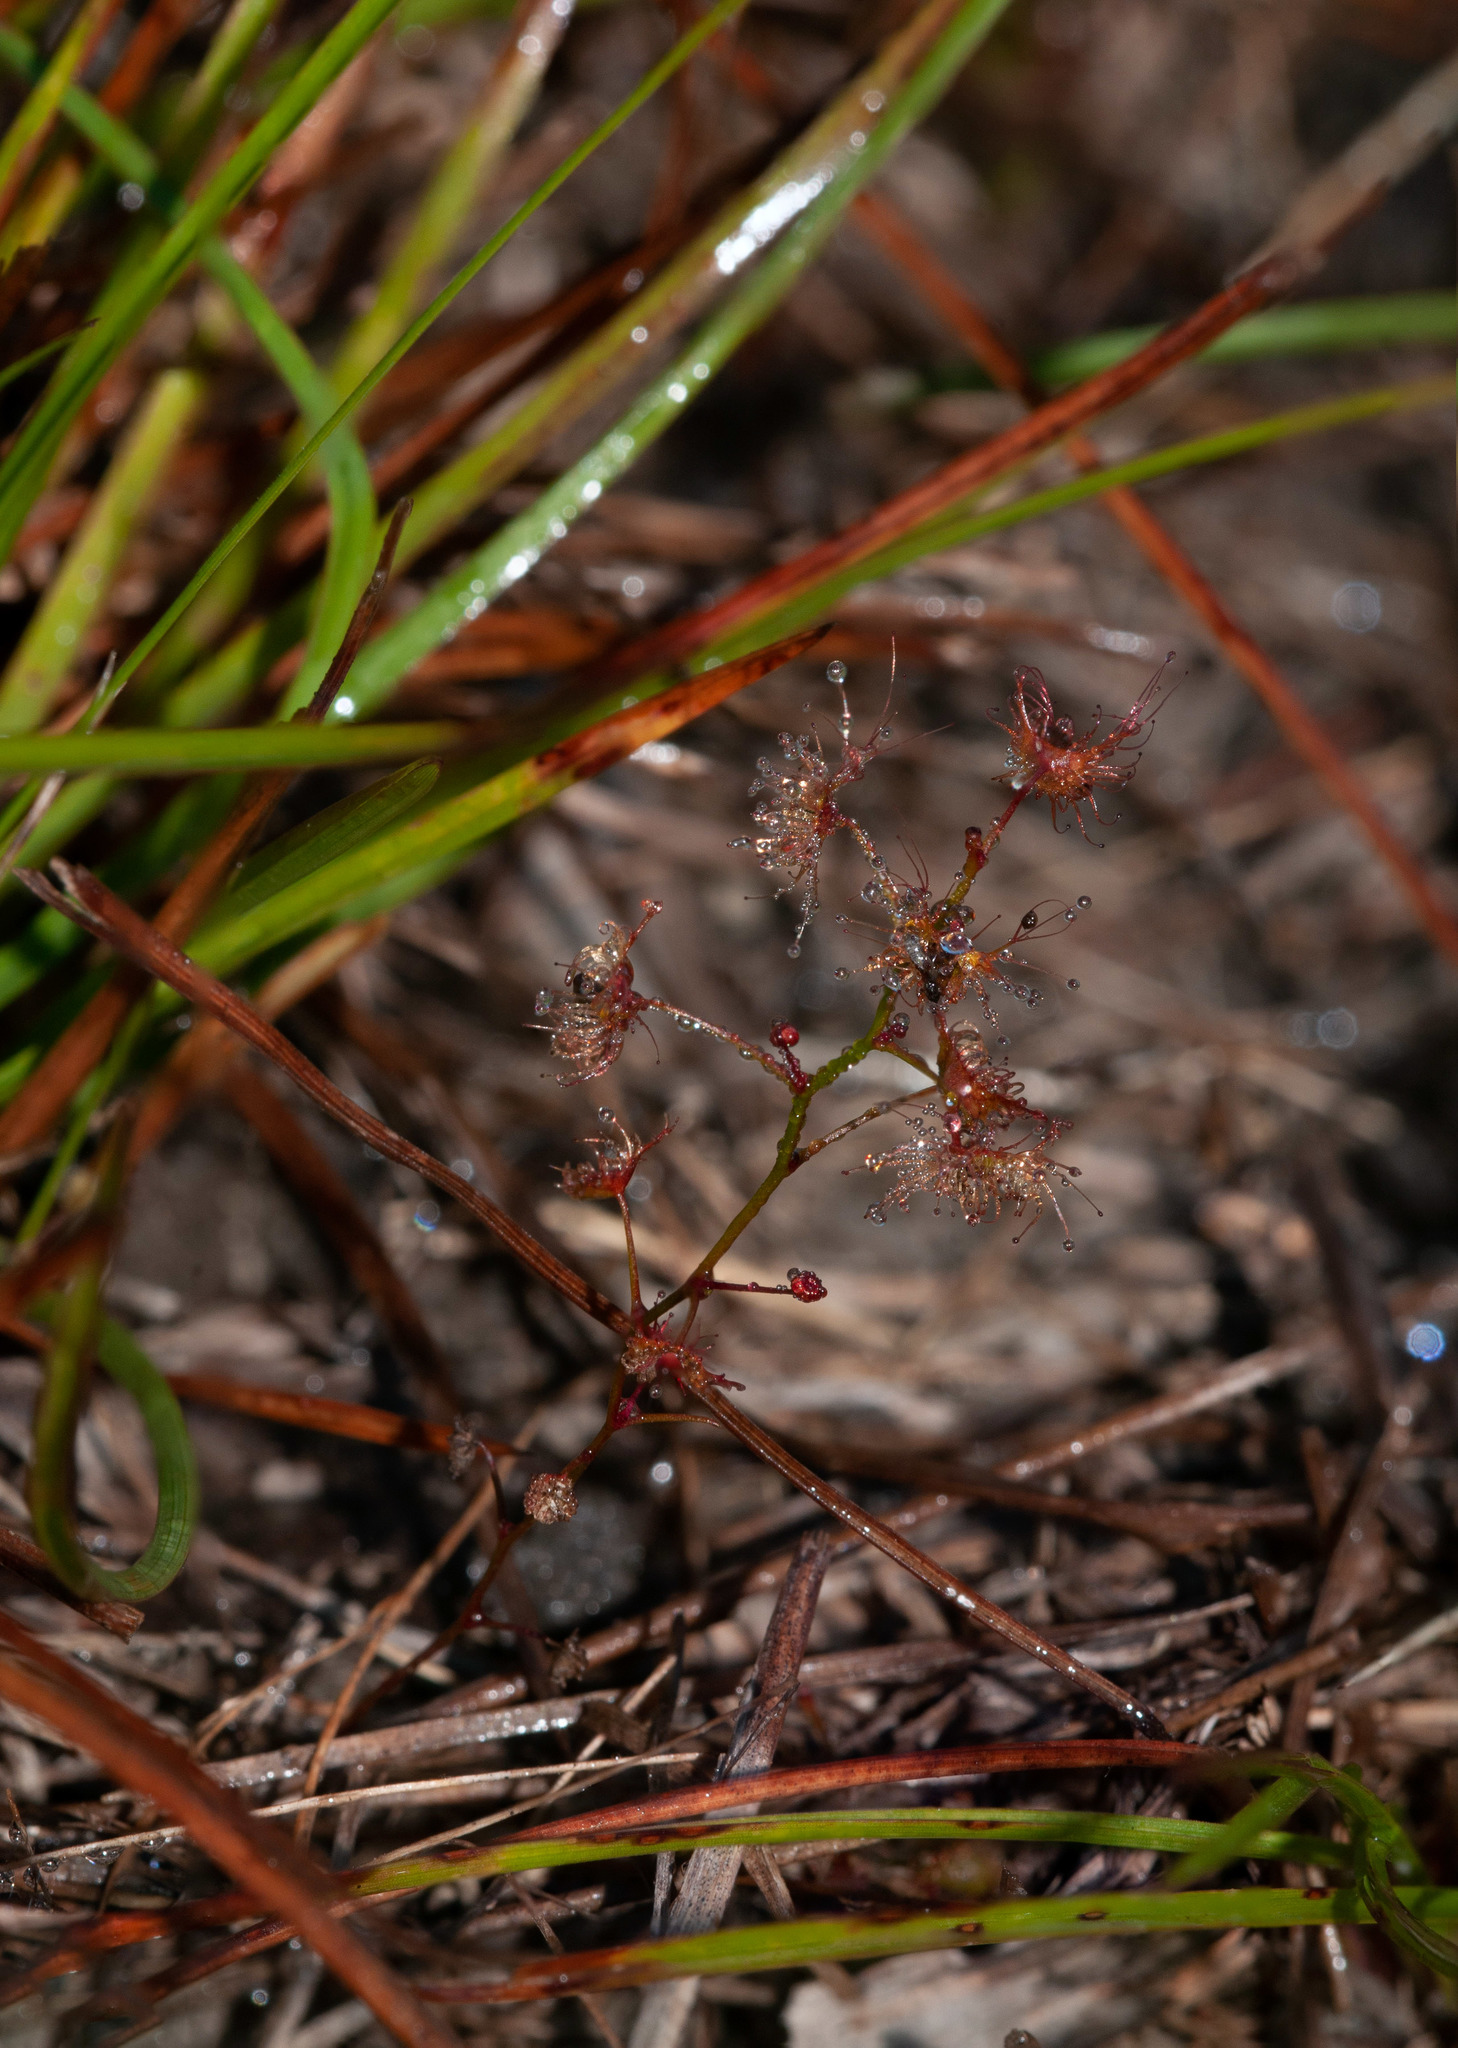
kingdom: Plantae
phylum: Tracheophyta
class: Magnoliopsida
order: Caryophyllales
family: Droseraceae
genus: Drosera
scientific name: Drosera peltata
